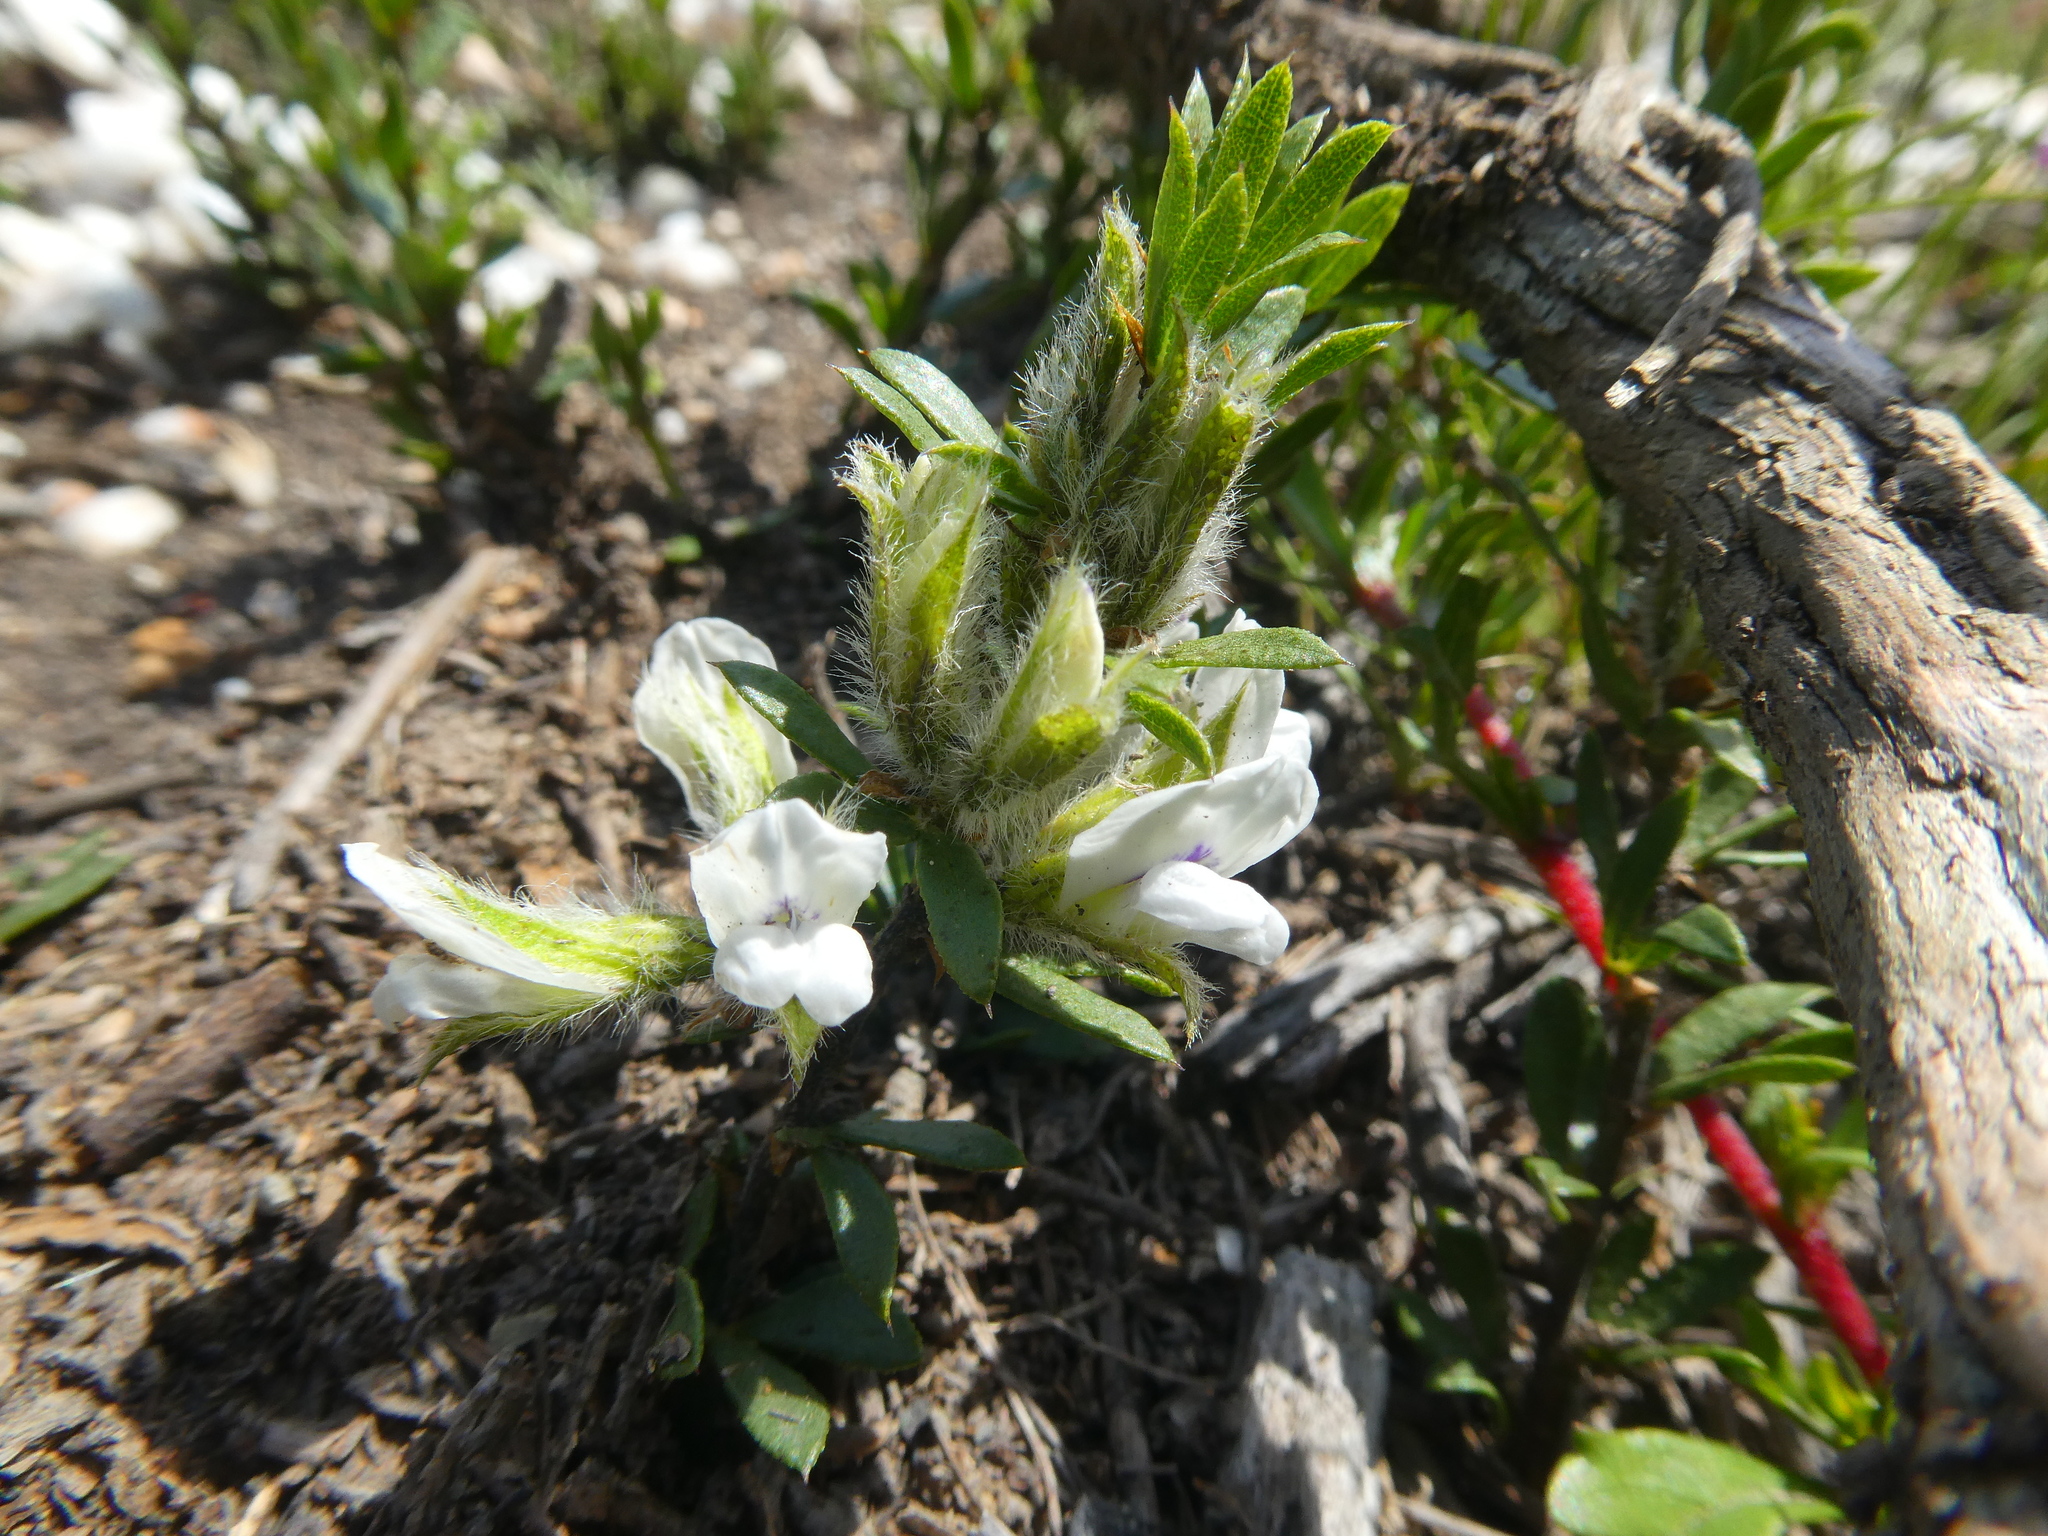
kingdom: Plantae
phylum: Tracheophyta
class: Magnoliopsida
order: Fabales
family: Fabaceae
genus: Psoralea
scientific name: Psoralea curtisiae
